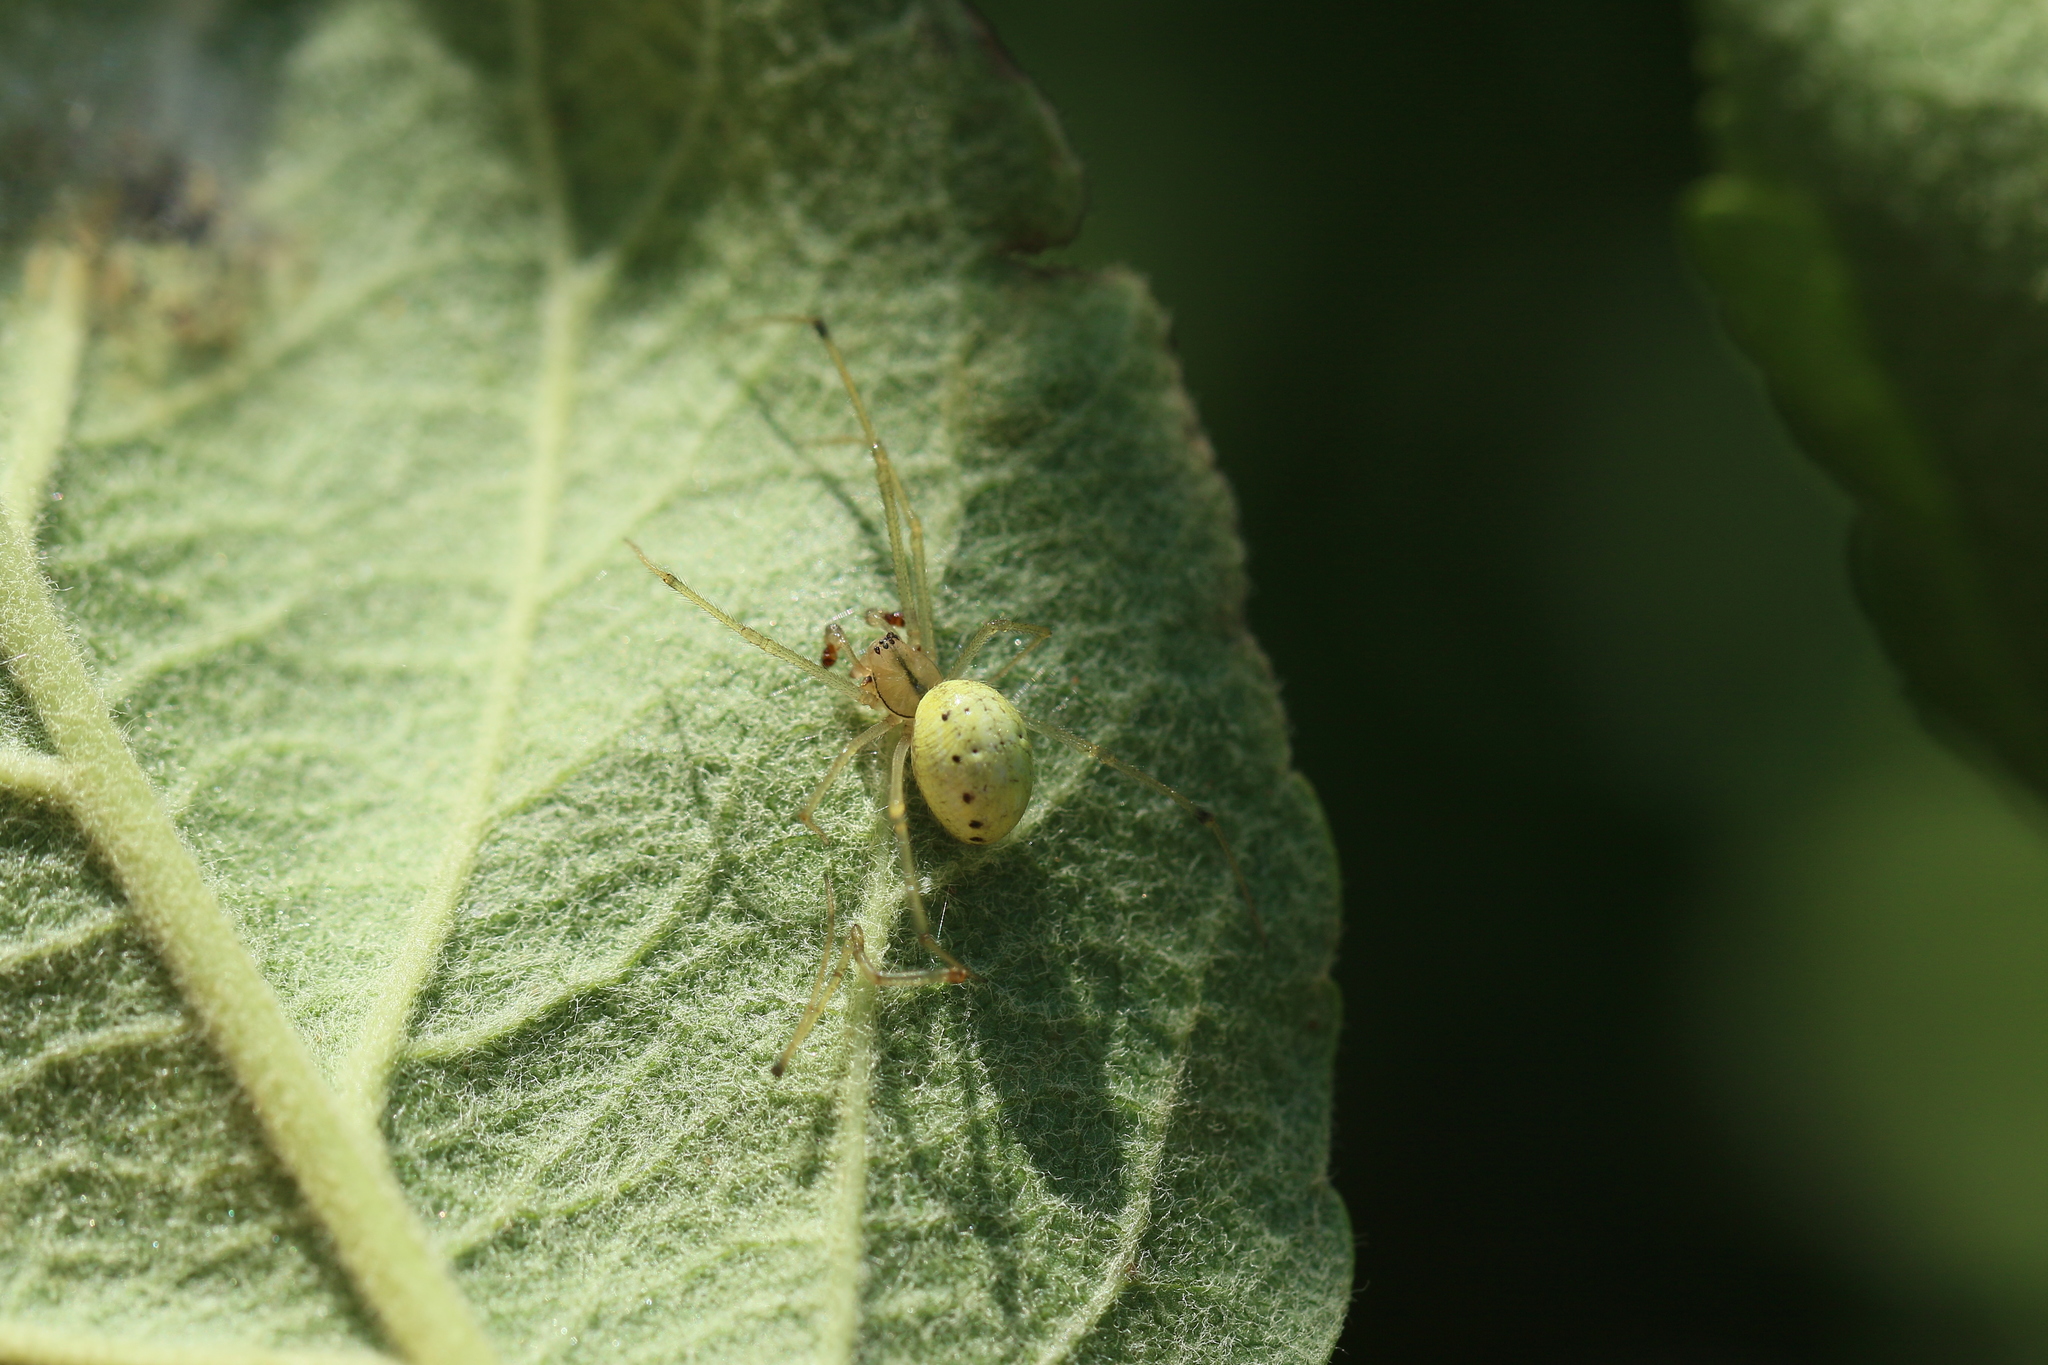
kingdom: Animalia
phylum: Arthropoda
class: Arachnida
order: Araneae
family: Theridiidae
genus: Enoplognatha
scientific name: Enoplognatha ovata
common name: Common candy-striped spider
